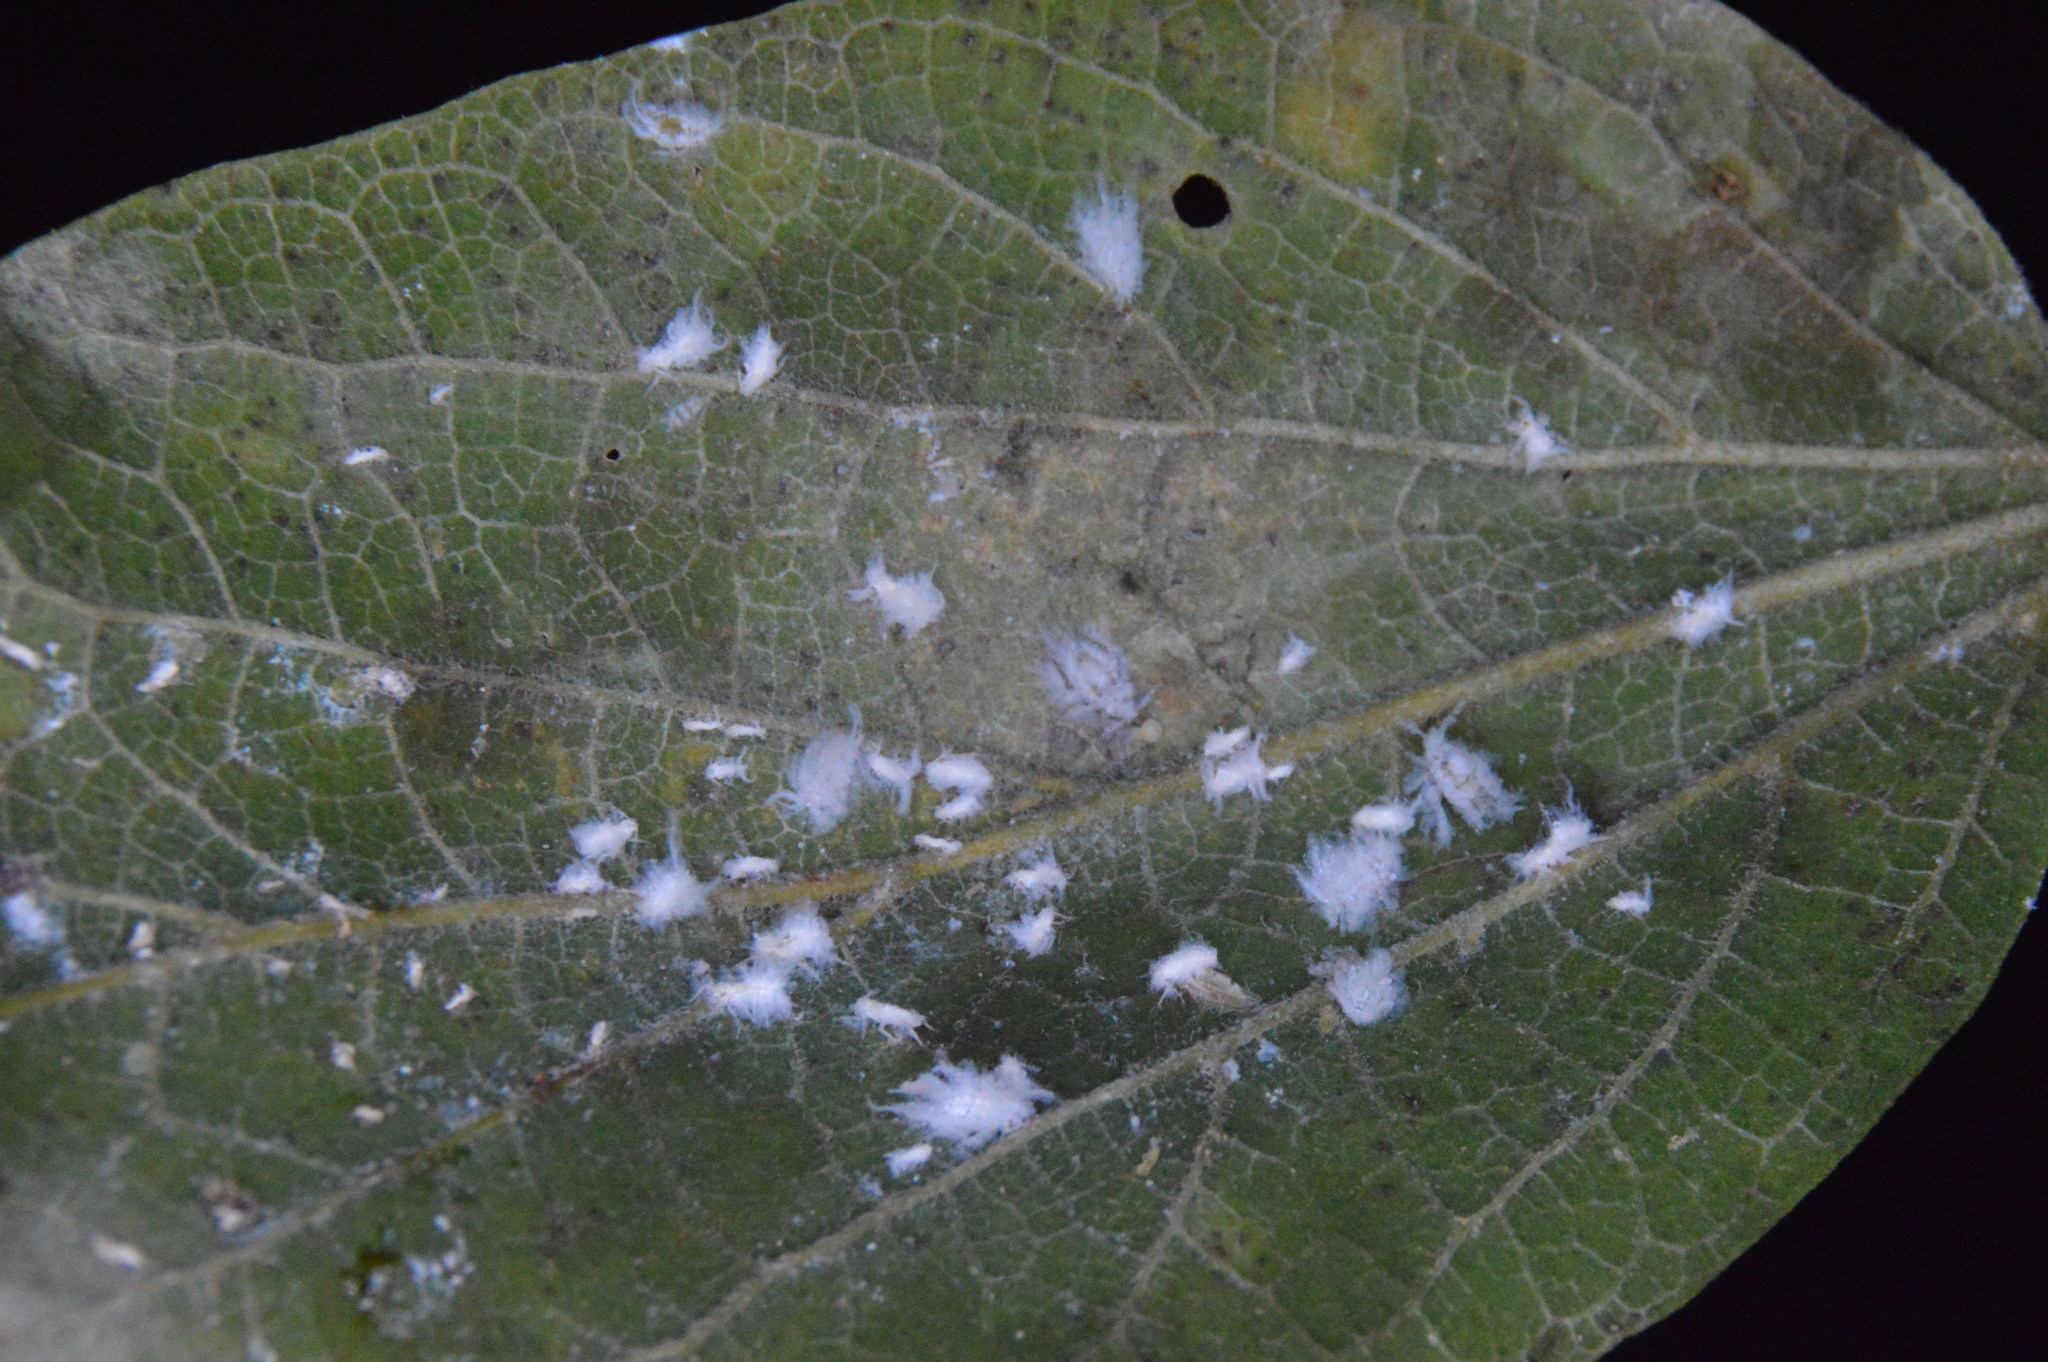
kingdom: Animalia
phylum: Arthropoda
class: Insecta
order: Hemiptera
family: Aphididae
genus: Shivaphis
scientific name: Shivaphis celti
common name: Asian wooly hackberry aphid
